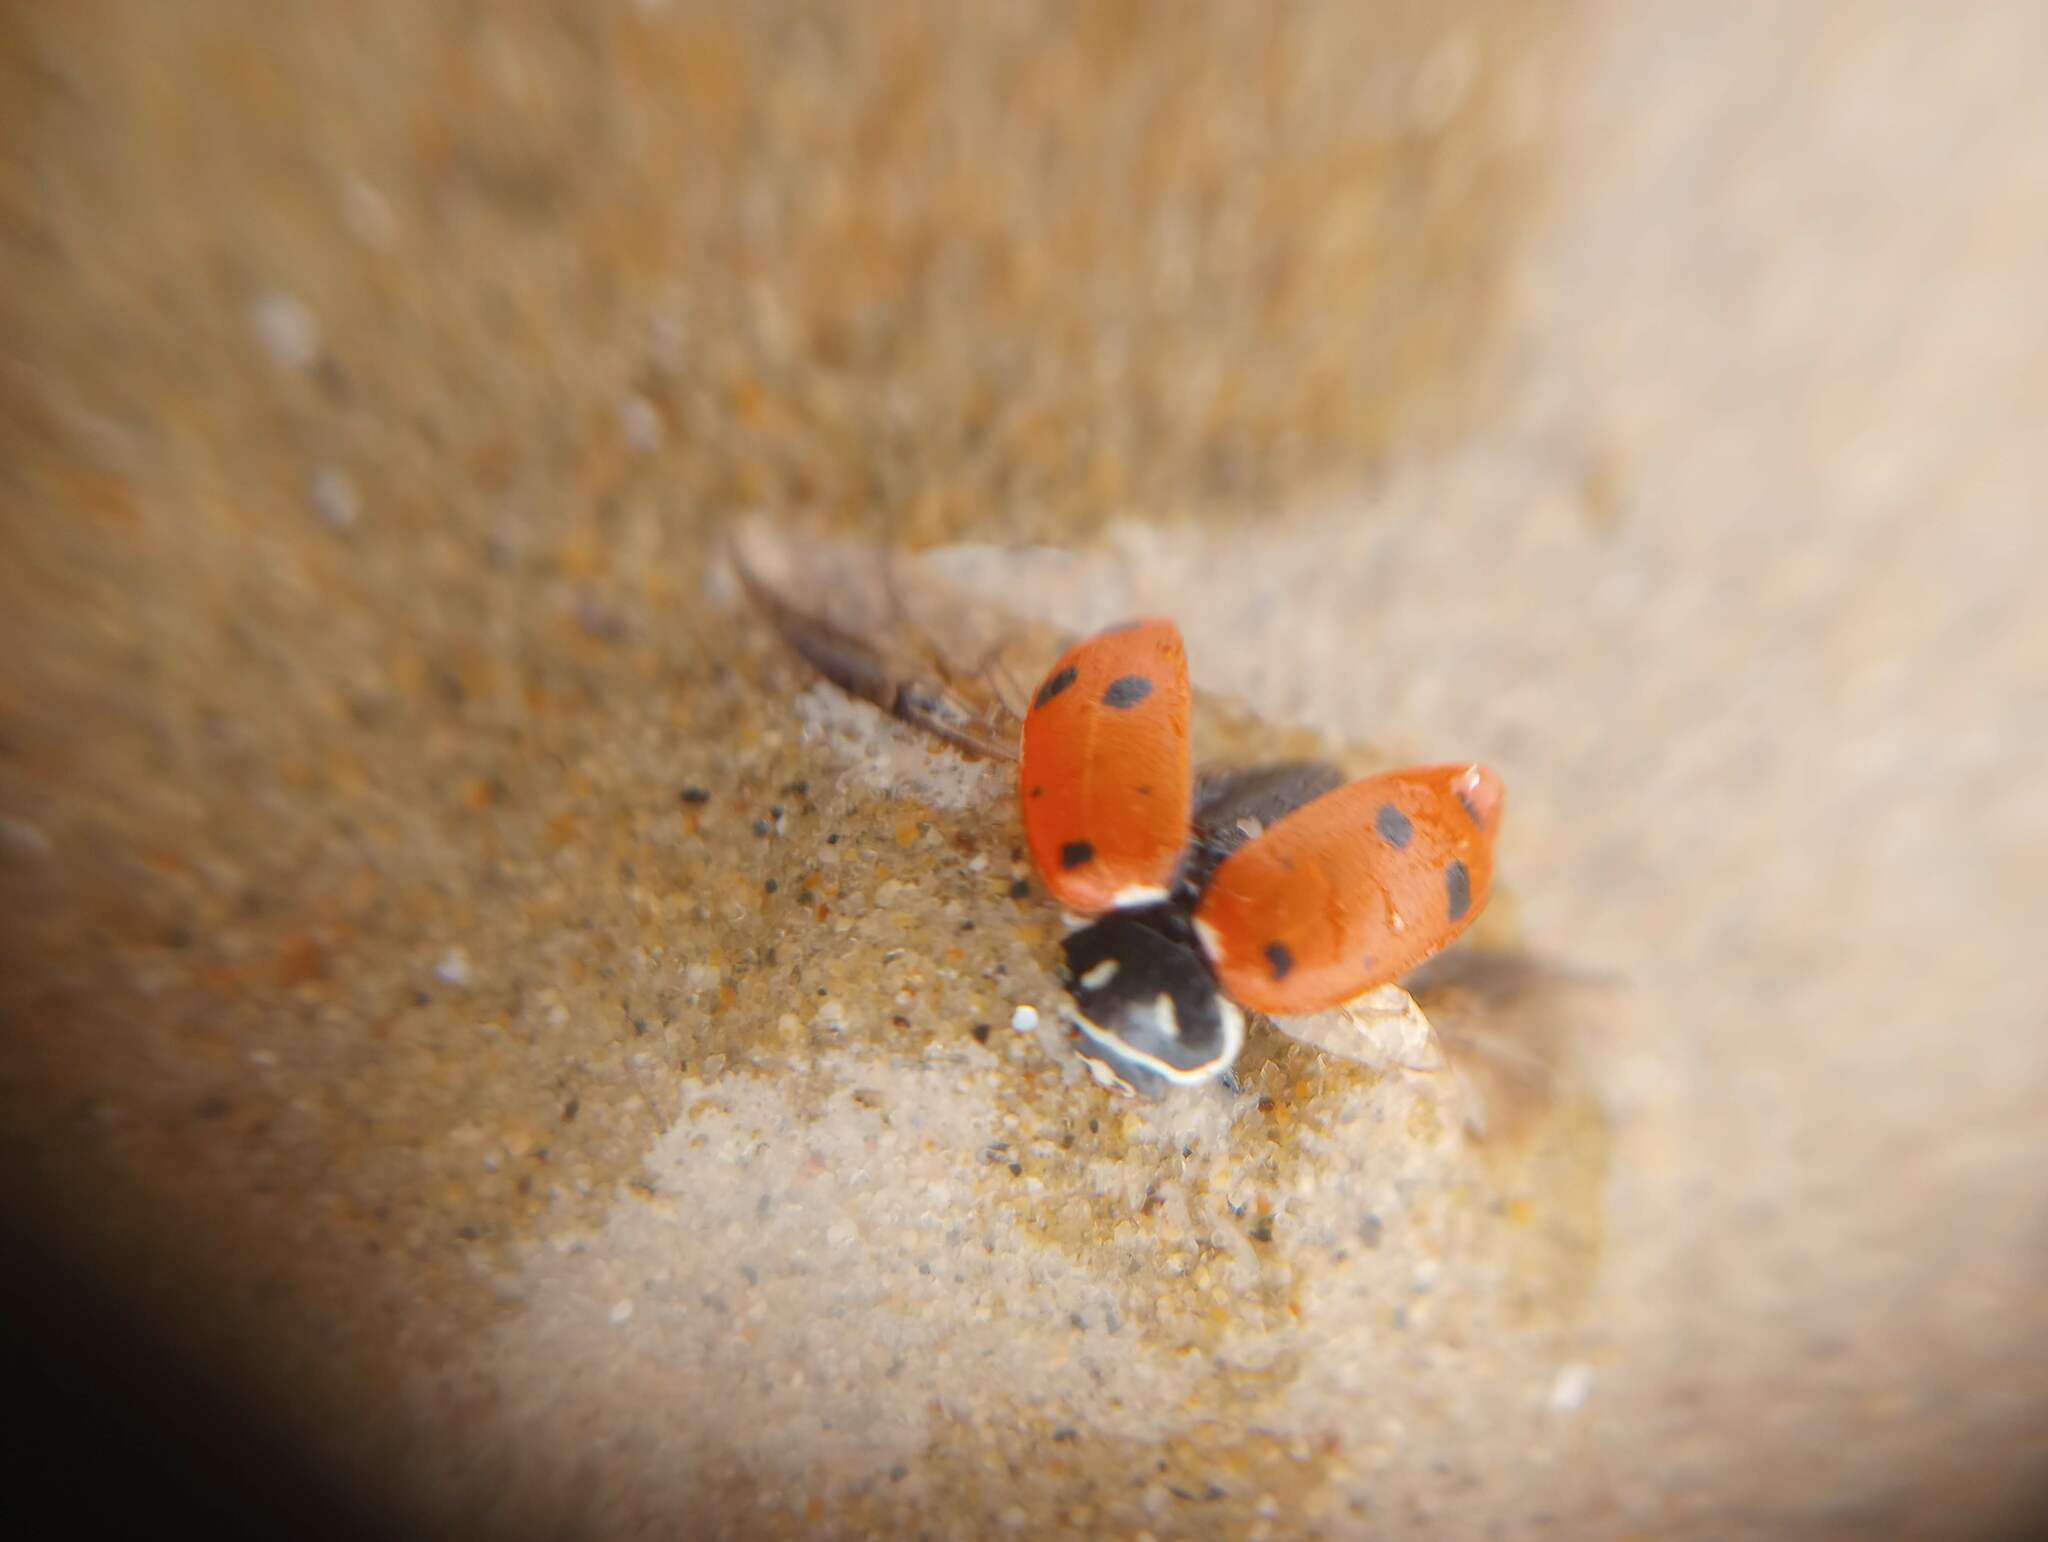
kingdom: Animalia
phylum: Arthropoda
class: Insecta
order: Coleoptera
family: Coccinellidae
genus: Hippodamia
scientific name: Hippodamia convergens
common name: Convergent lady beetle
